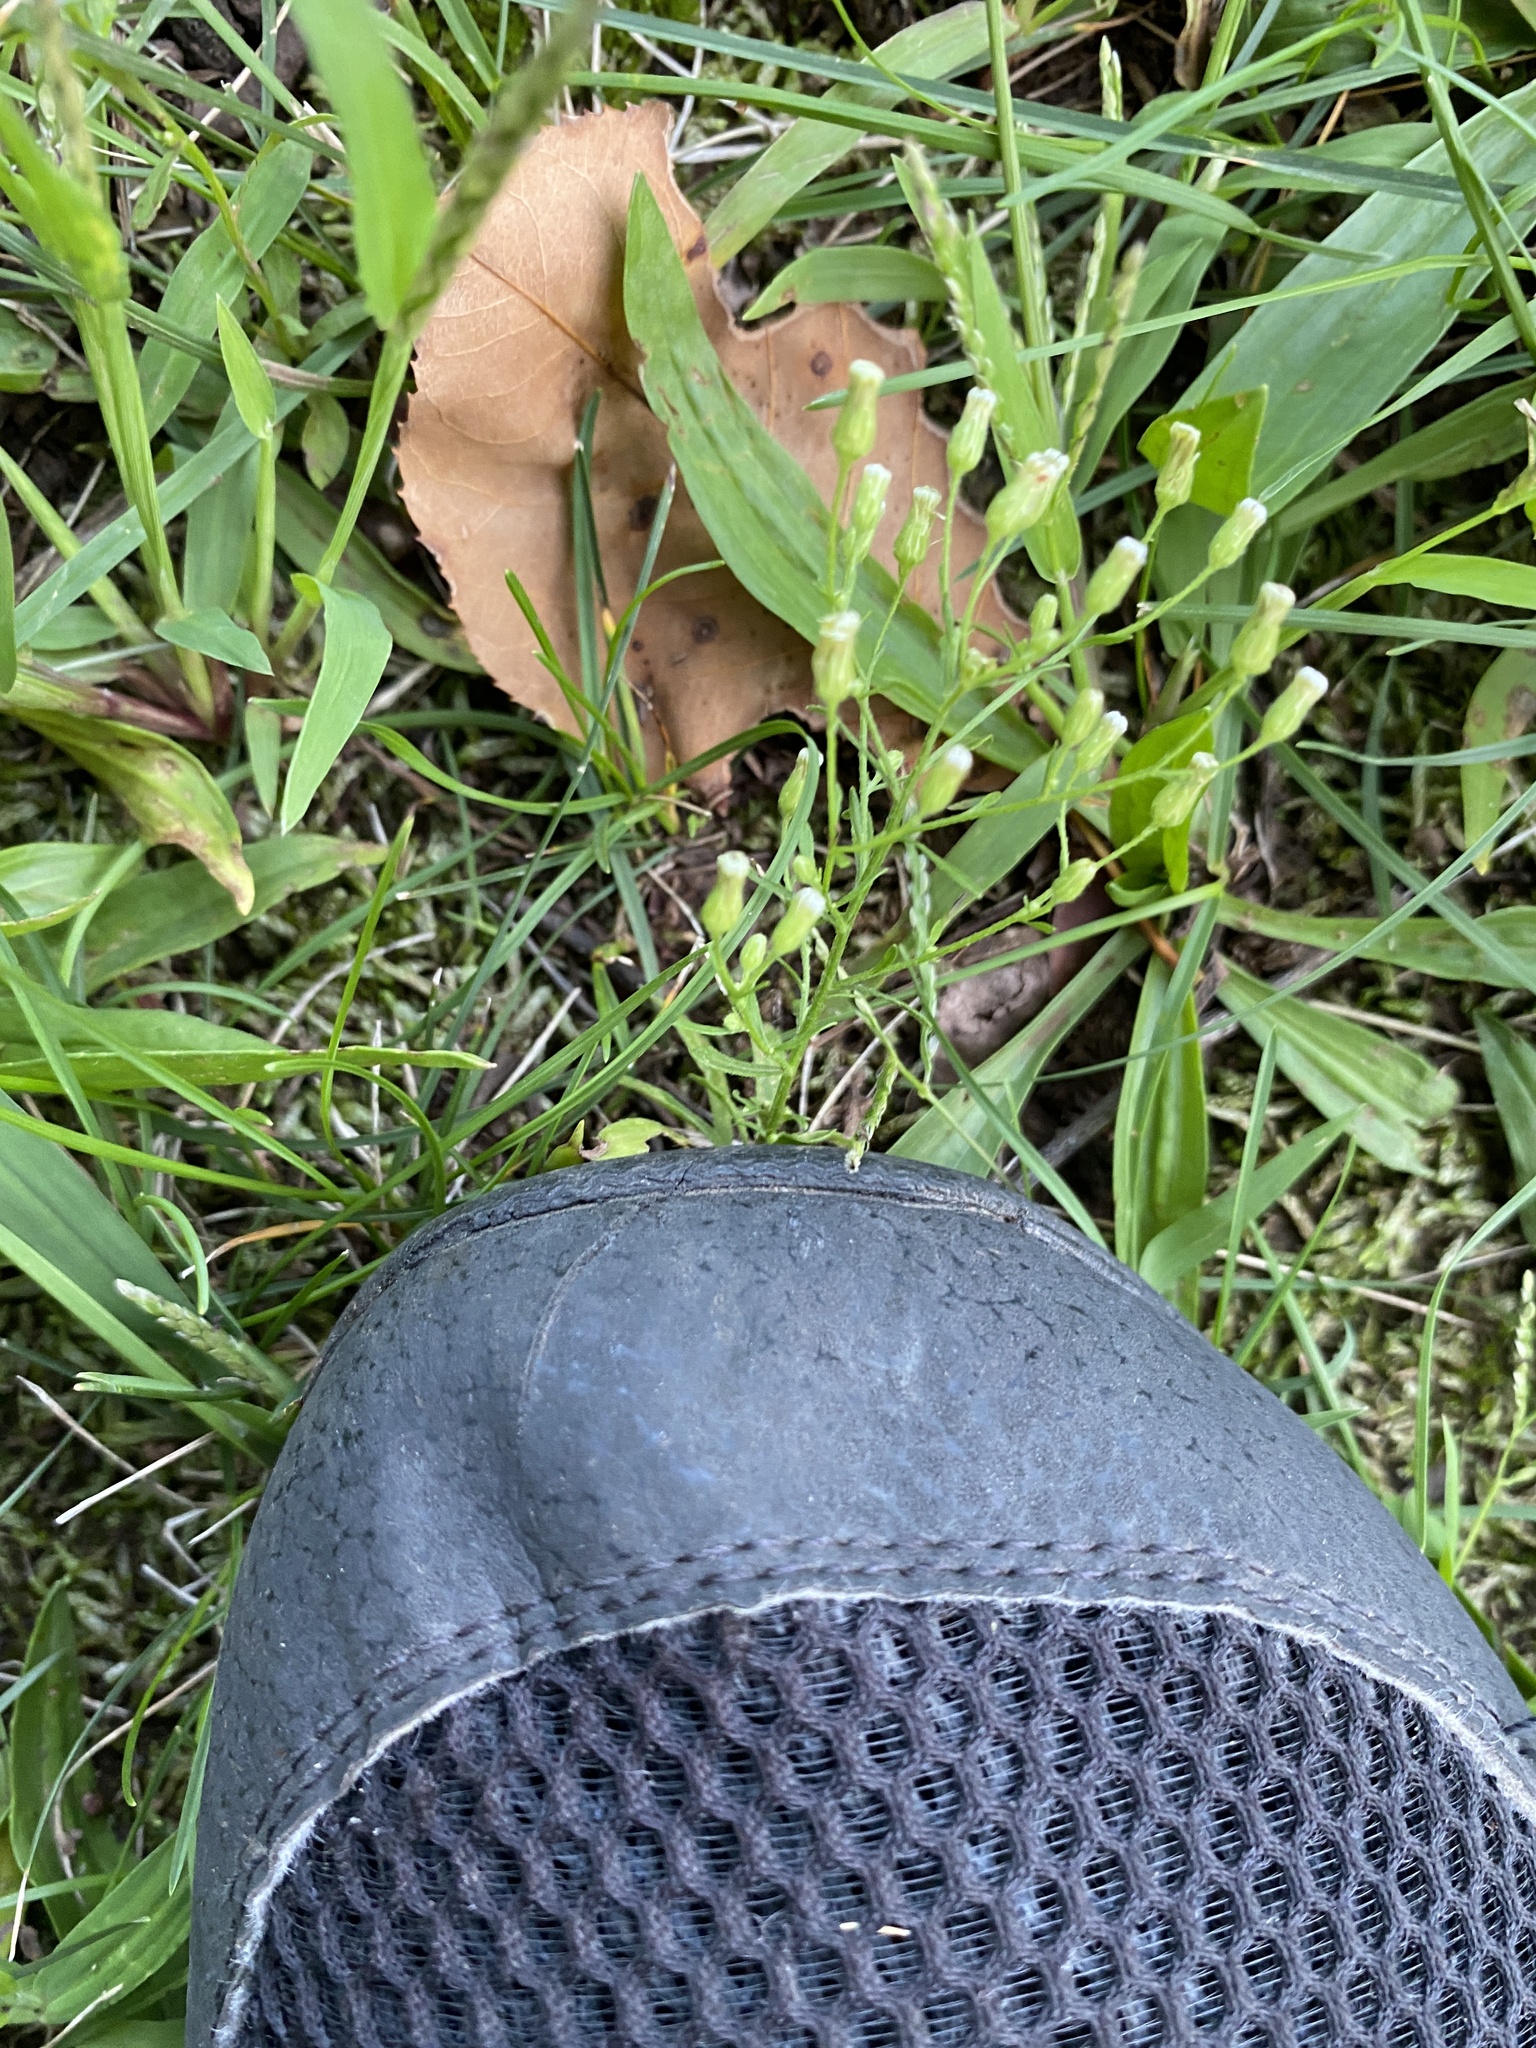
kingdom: Plantae
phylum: Tracheophyta
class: Magnoliopsida
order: Asterales
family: Asteraceae
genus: Erigeron
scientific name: Erigeron canadensis
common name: Canadian fleabane
